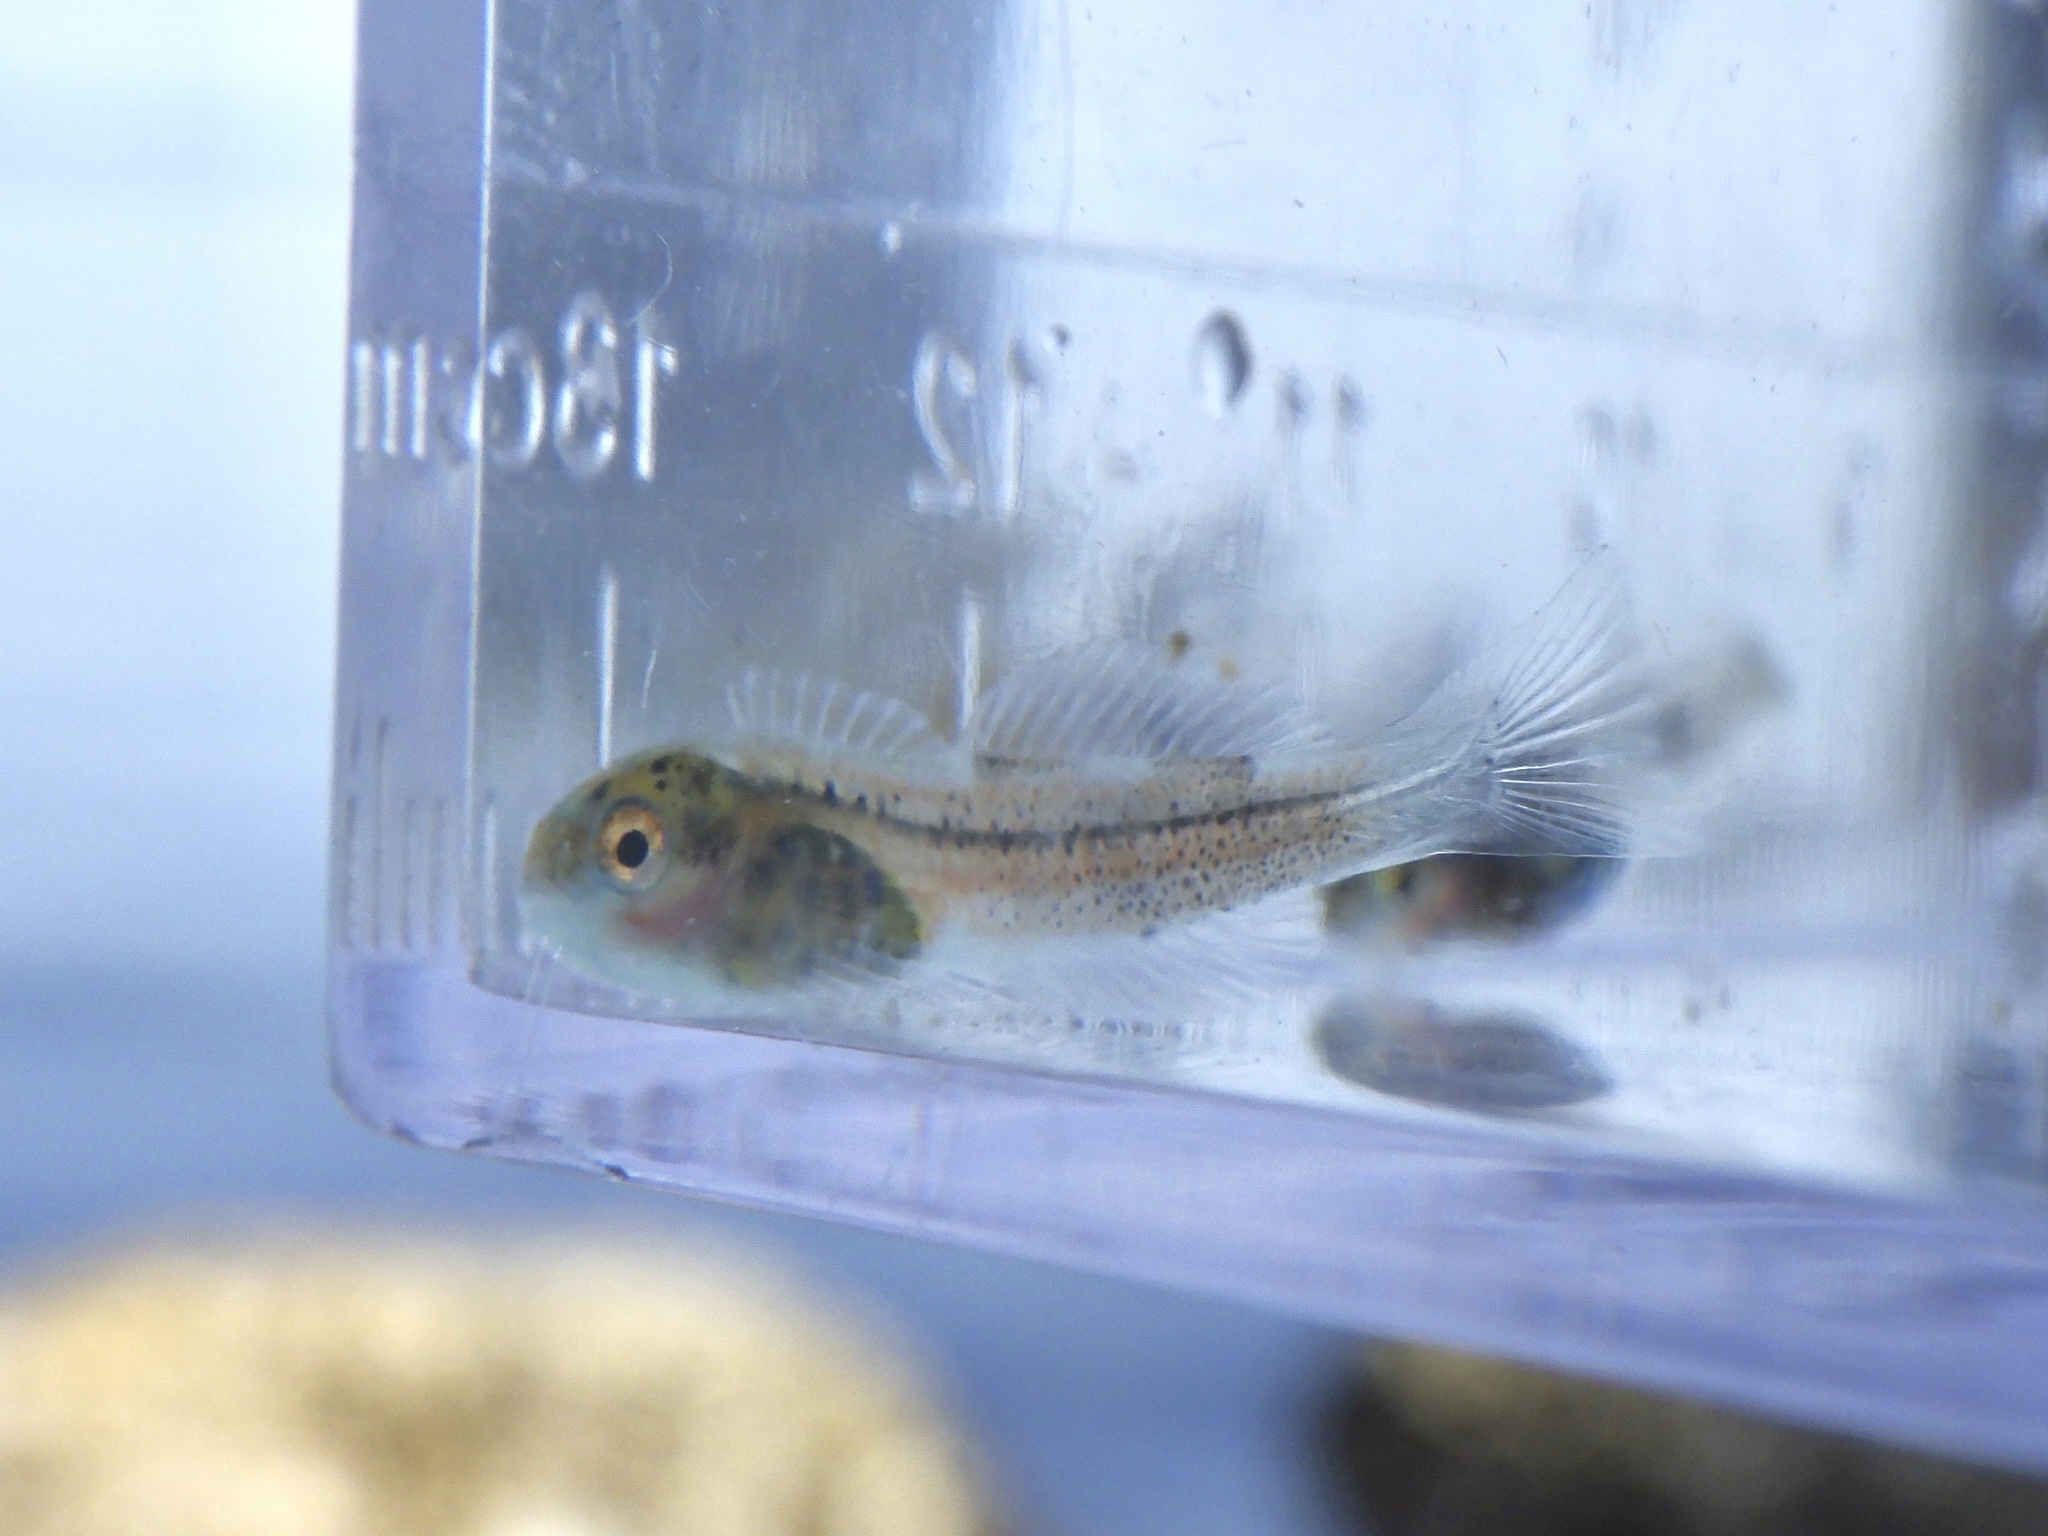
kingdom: Animalia
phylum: Chordata
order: Scorpaeniformes
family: Cottidae
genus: Ocynectes
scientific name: Ocynectes maschalis
